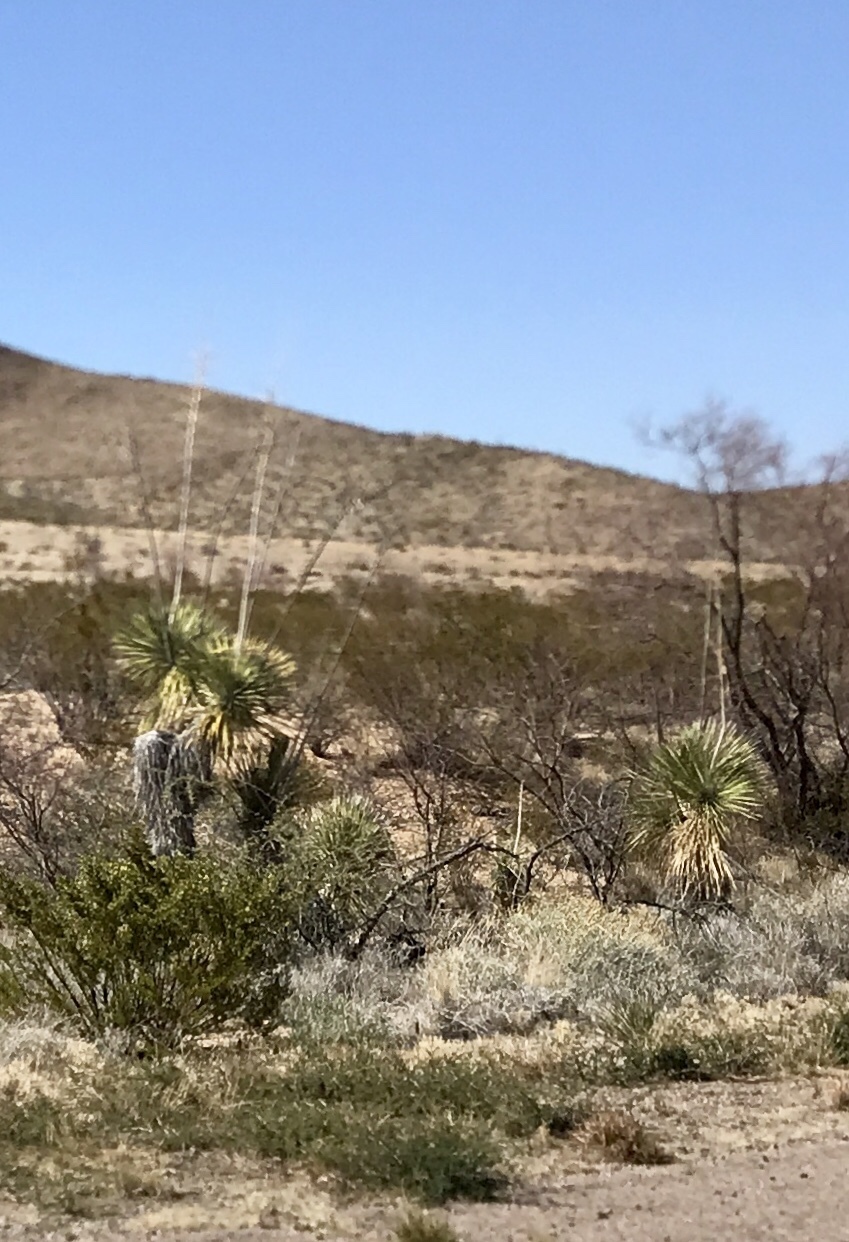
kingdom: Plantae
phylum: Tracheophyta
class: Liliopsida
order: Asparagales
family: Asparagaceae
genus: Yucca
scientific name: Yucca elata
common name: Palmella
